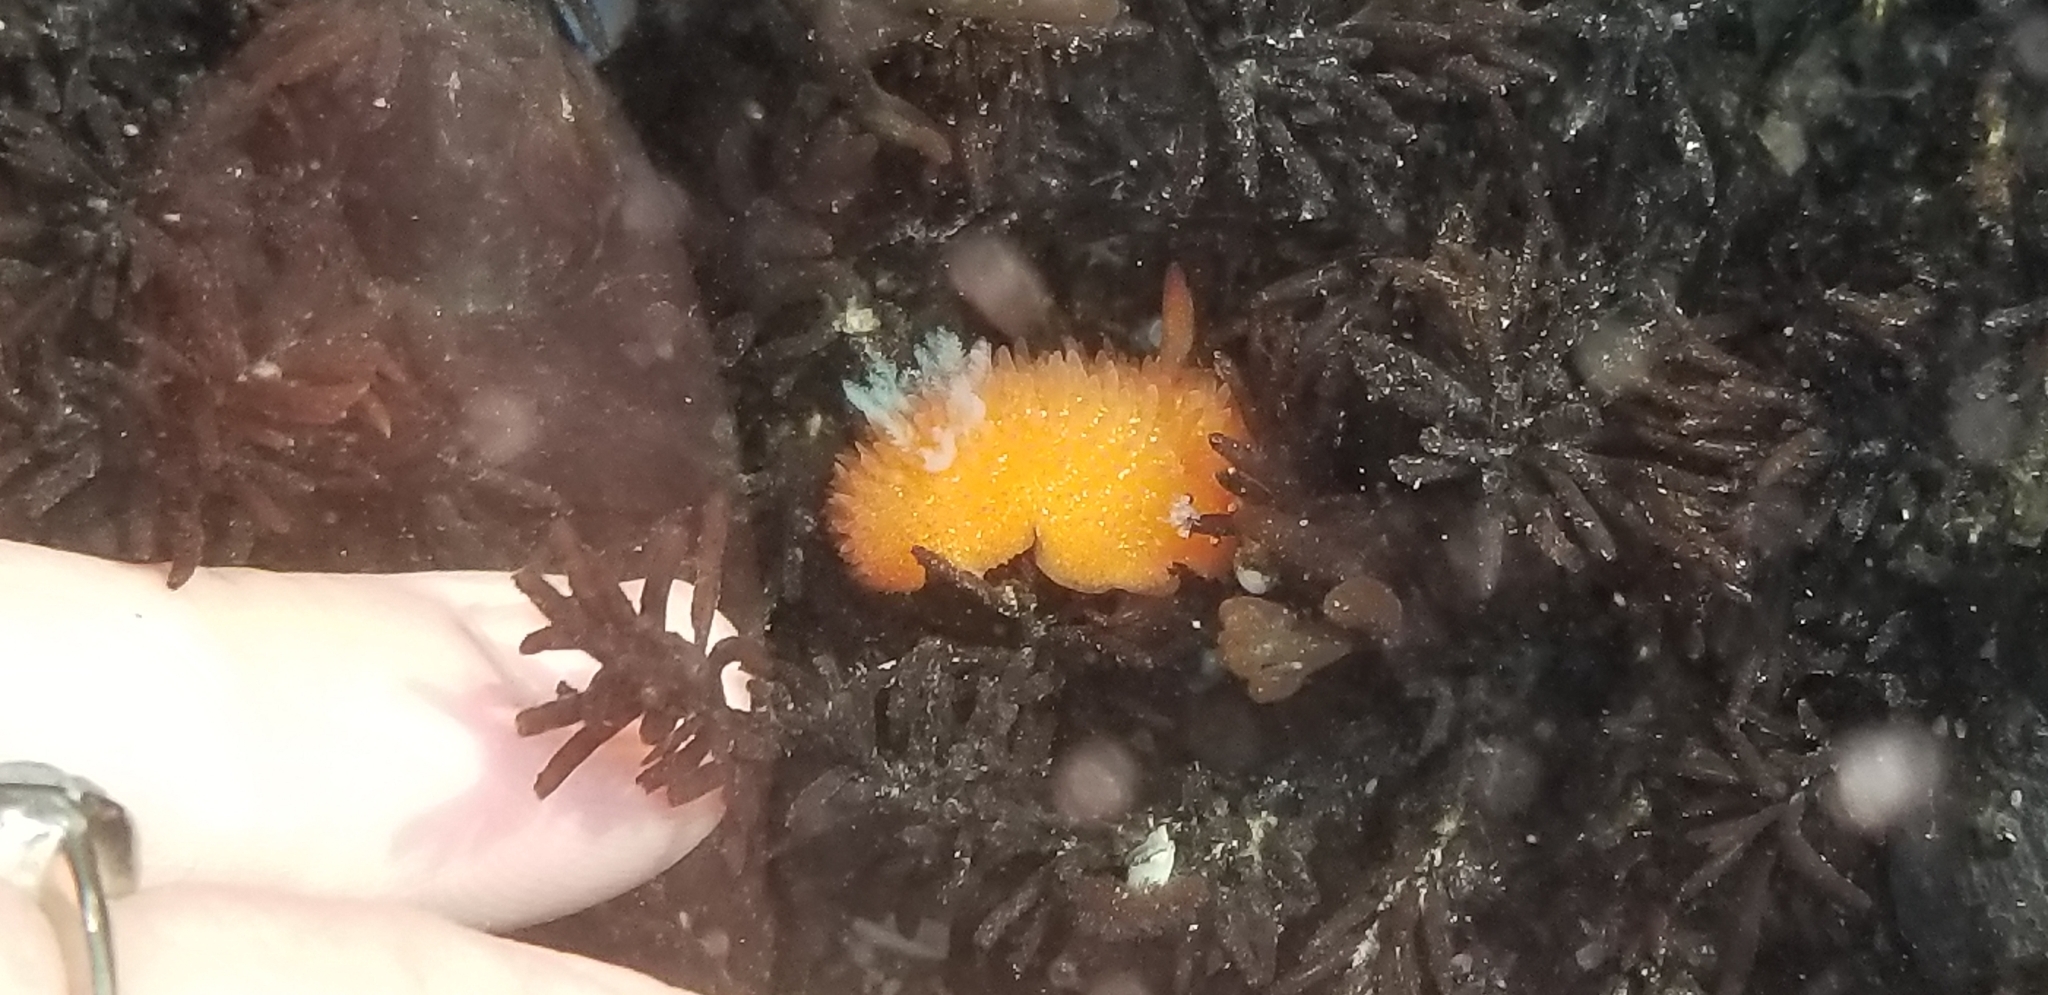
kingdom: Animalia
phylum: Mollusca
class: Gastropoda
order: Nudibranchia
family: Onchidorididae
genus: Acanthodoris
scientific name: Acanthodoris lutea
